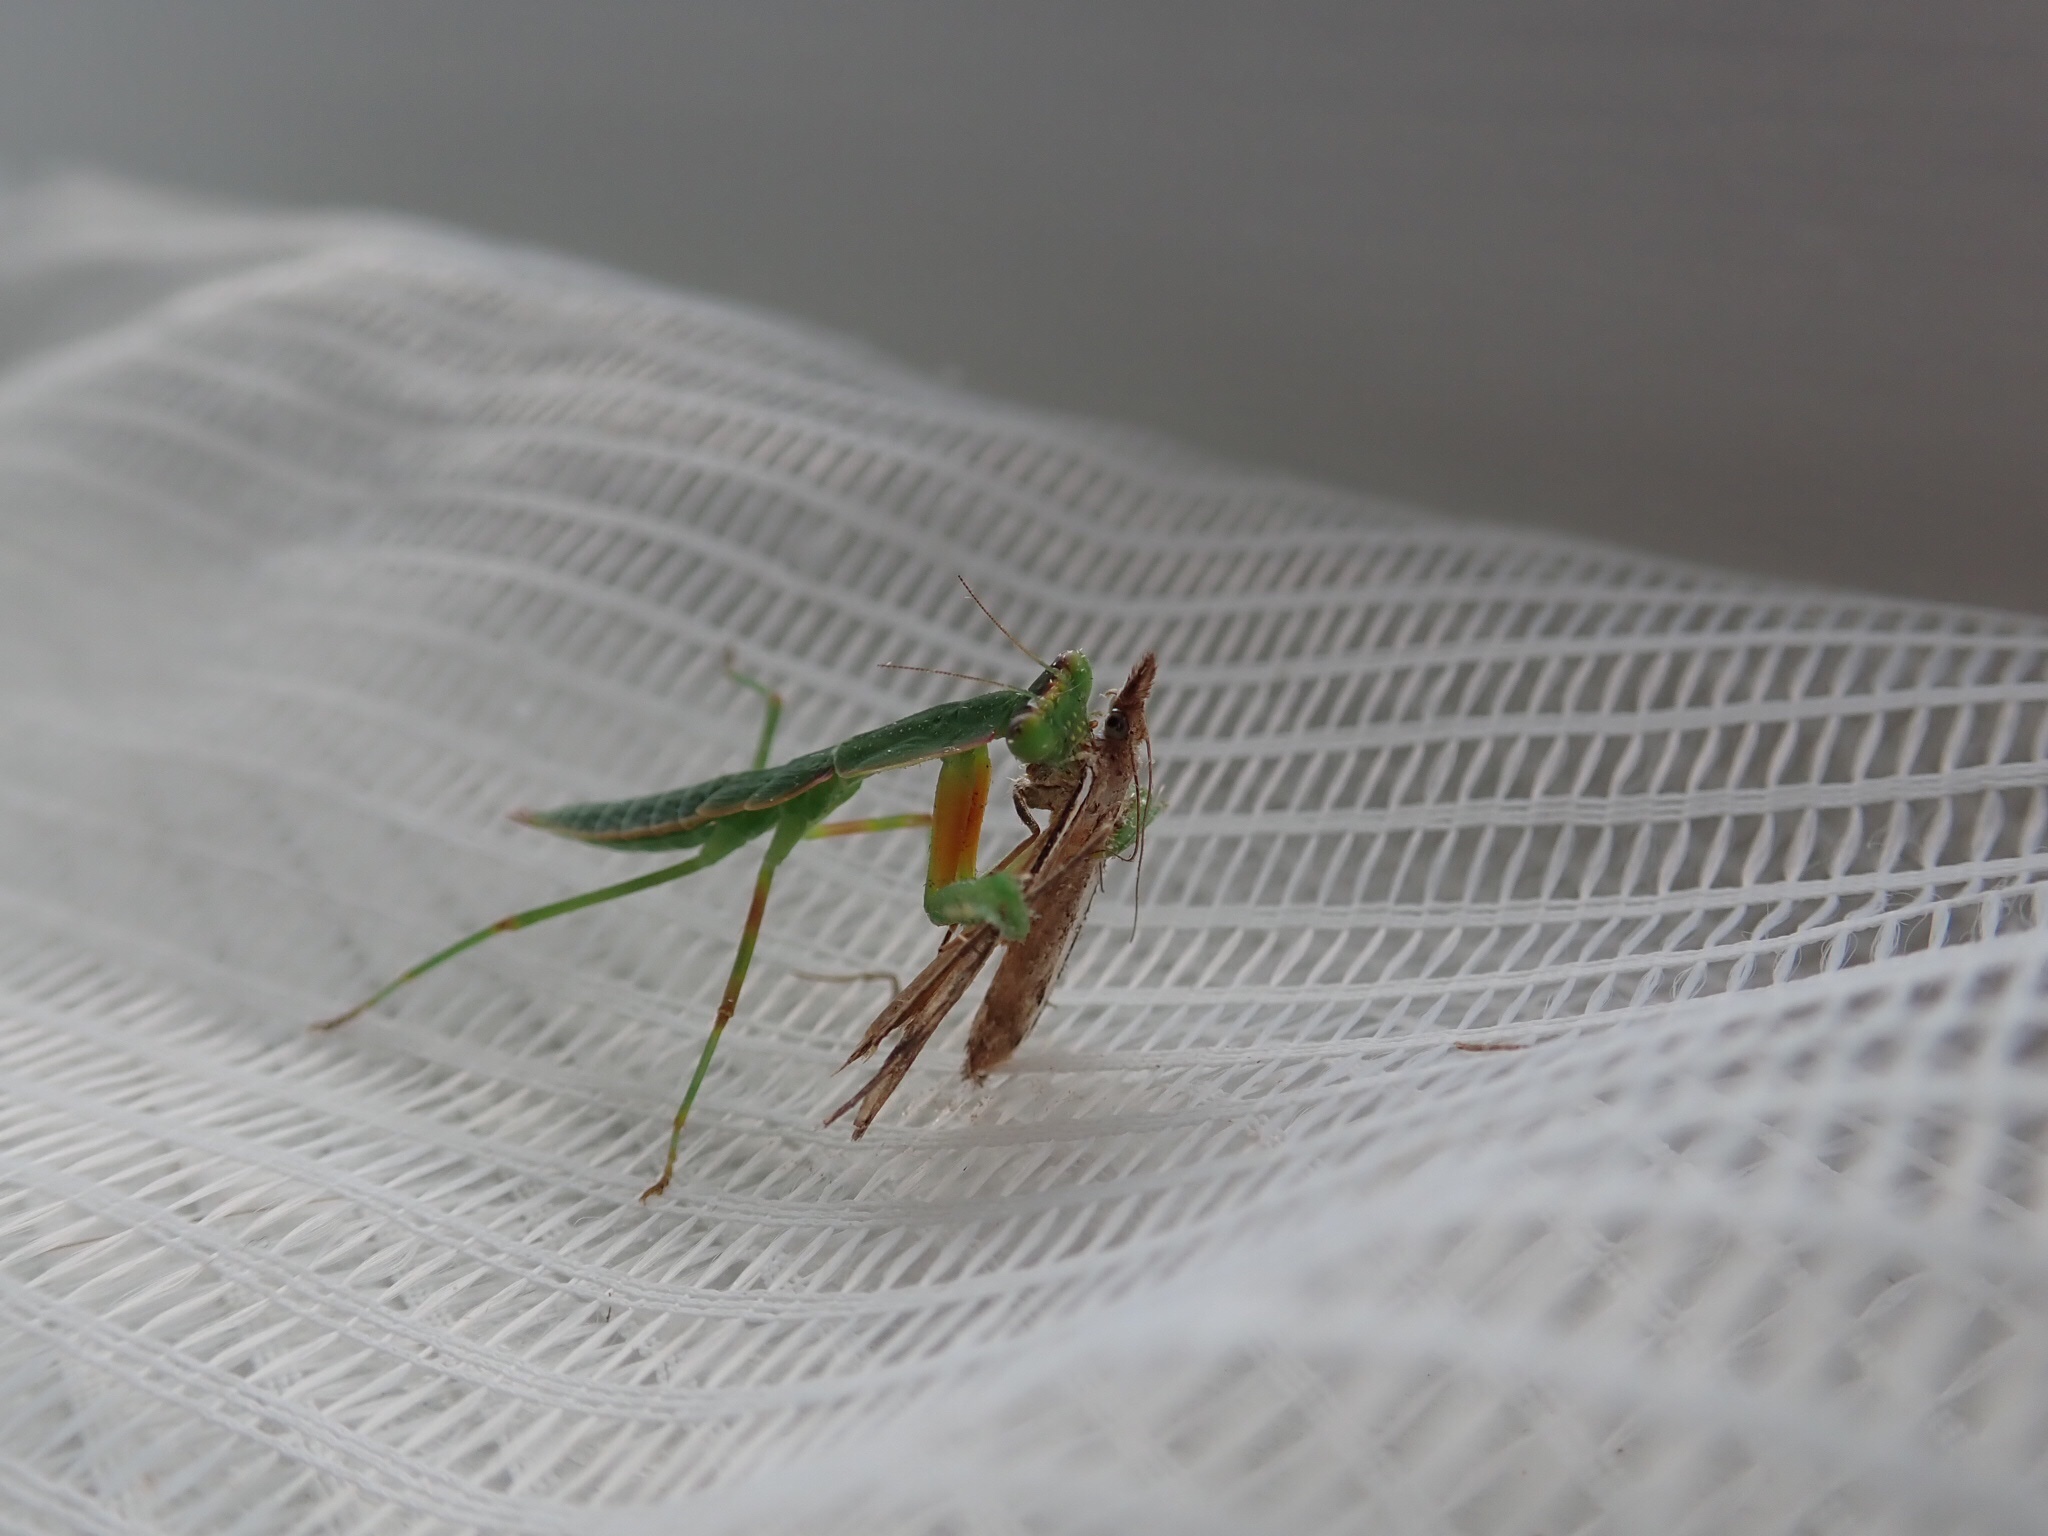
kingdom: Animalia
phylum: Arthropoda
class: Insecta
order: Lepidoptera
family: Crambidae
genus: Orocrambus
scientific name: Orocrambus flexuosellus
